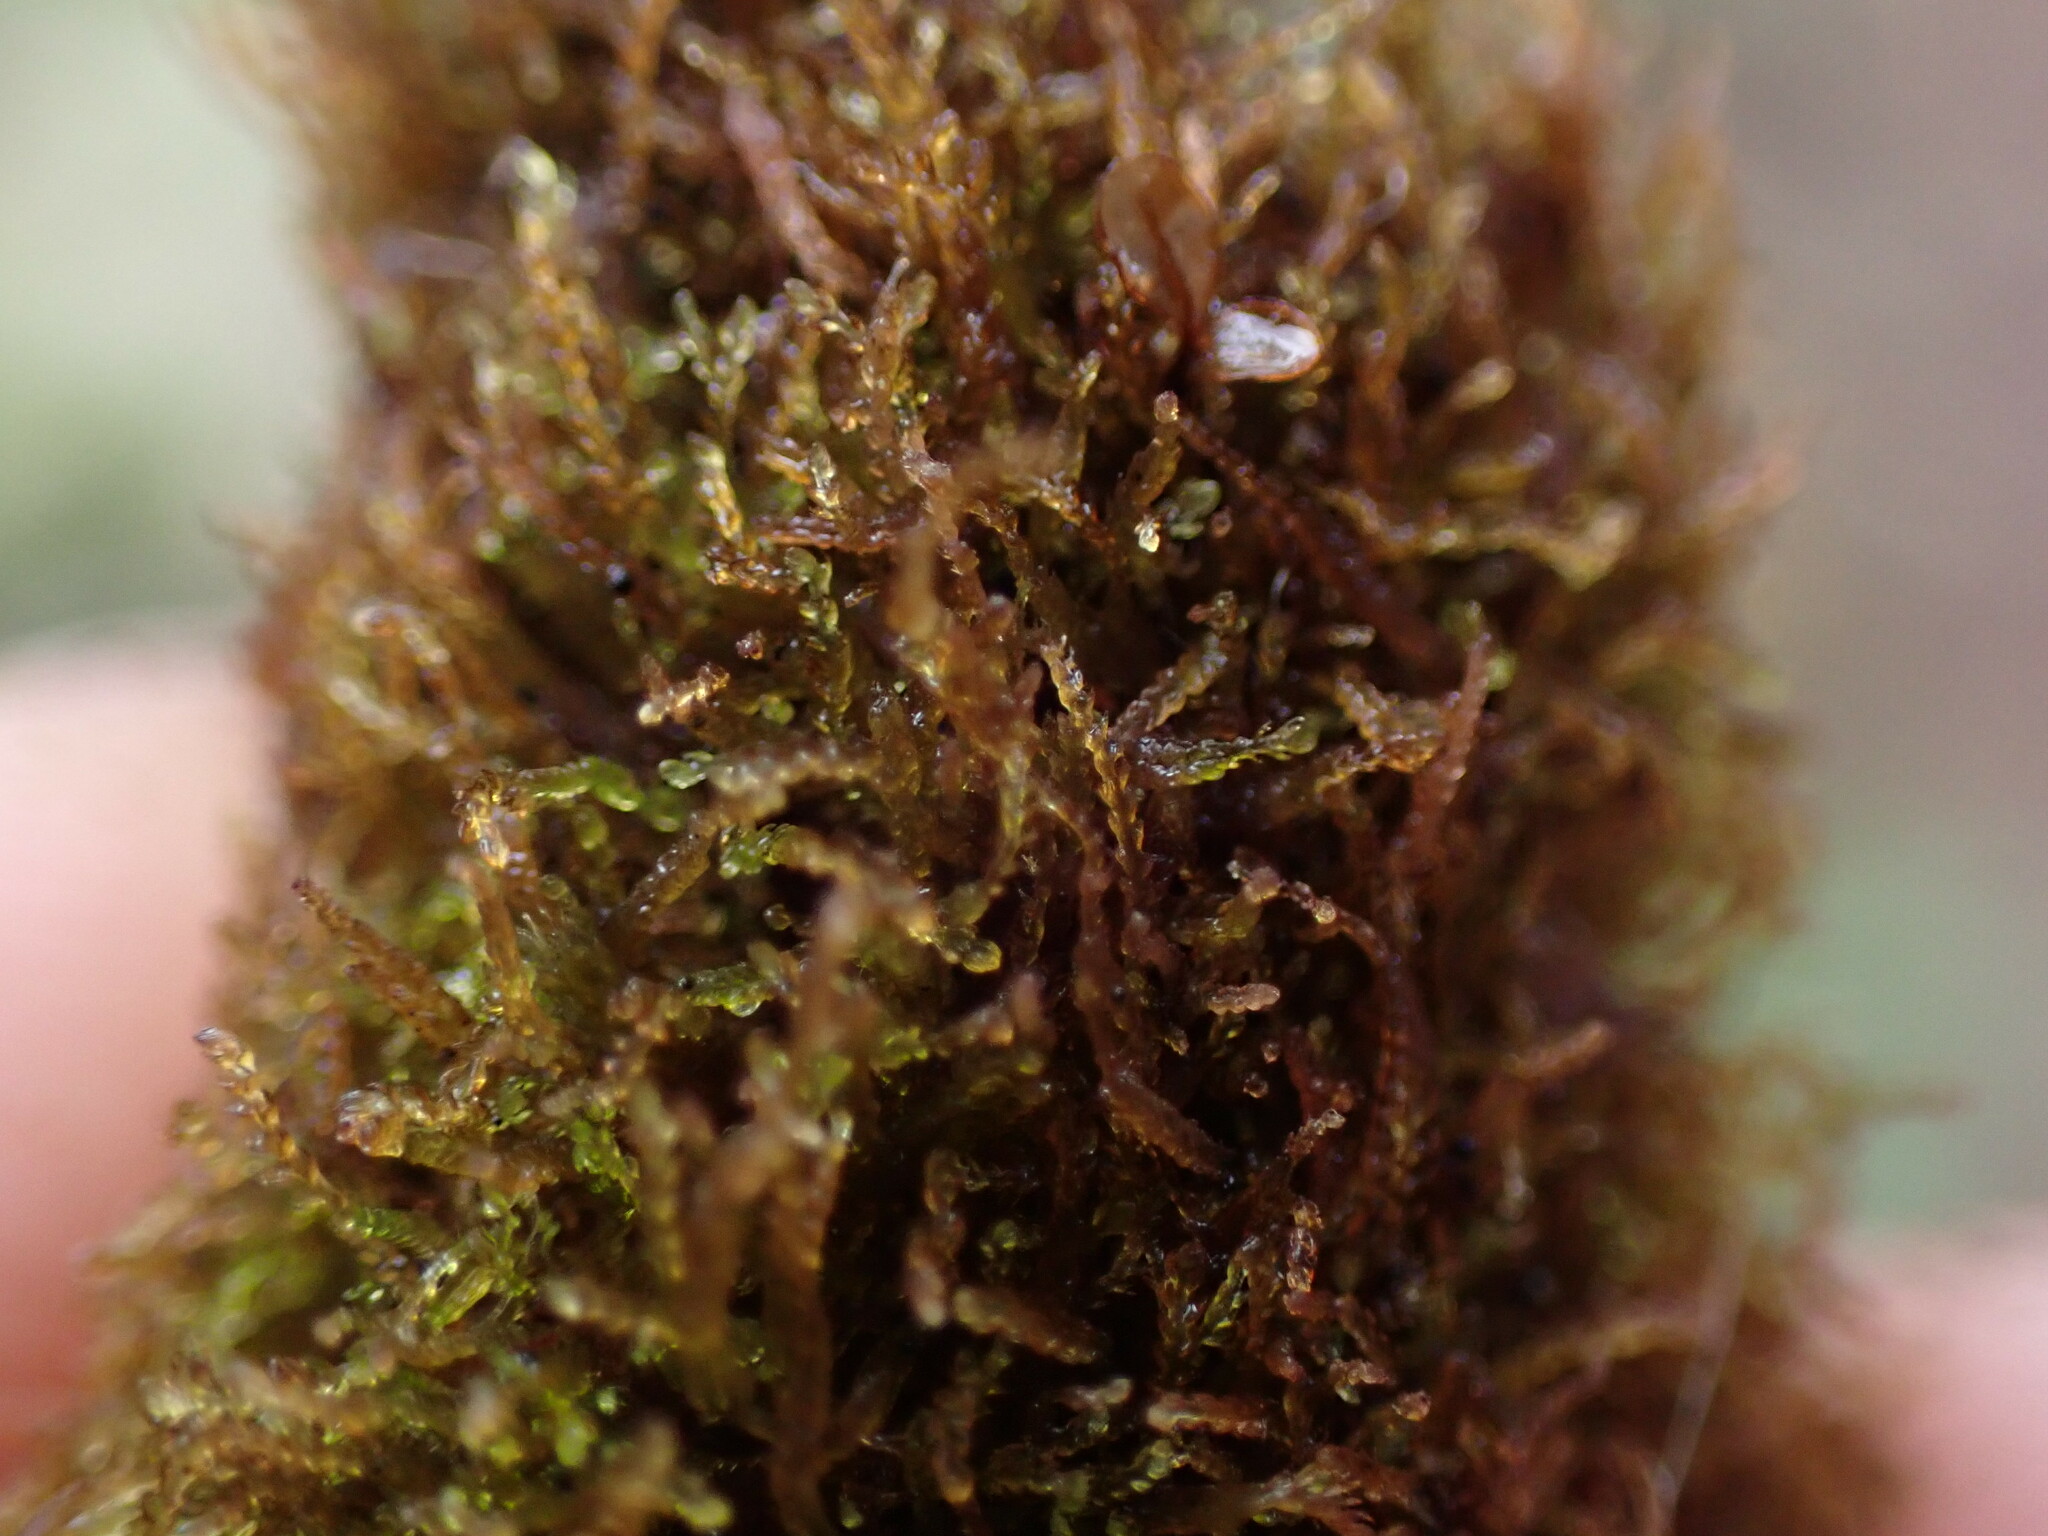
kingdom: Plantae
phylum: Marchantiophyta
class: Jungermanniopsida
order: Jungermanniales
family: Cephaloziellaceae
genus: Cephaloziella
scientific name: Cephaloziella divaricata
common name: Spreading threadwort
